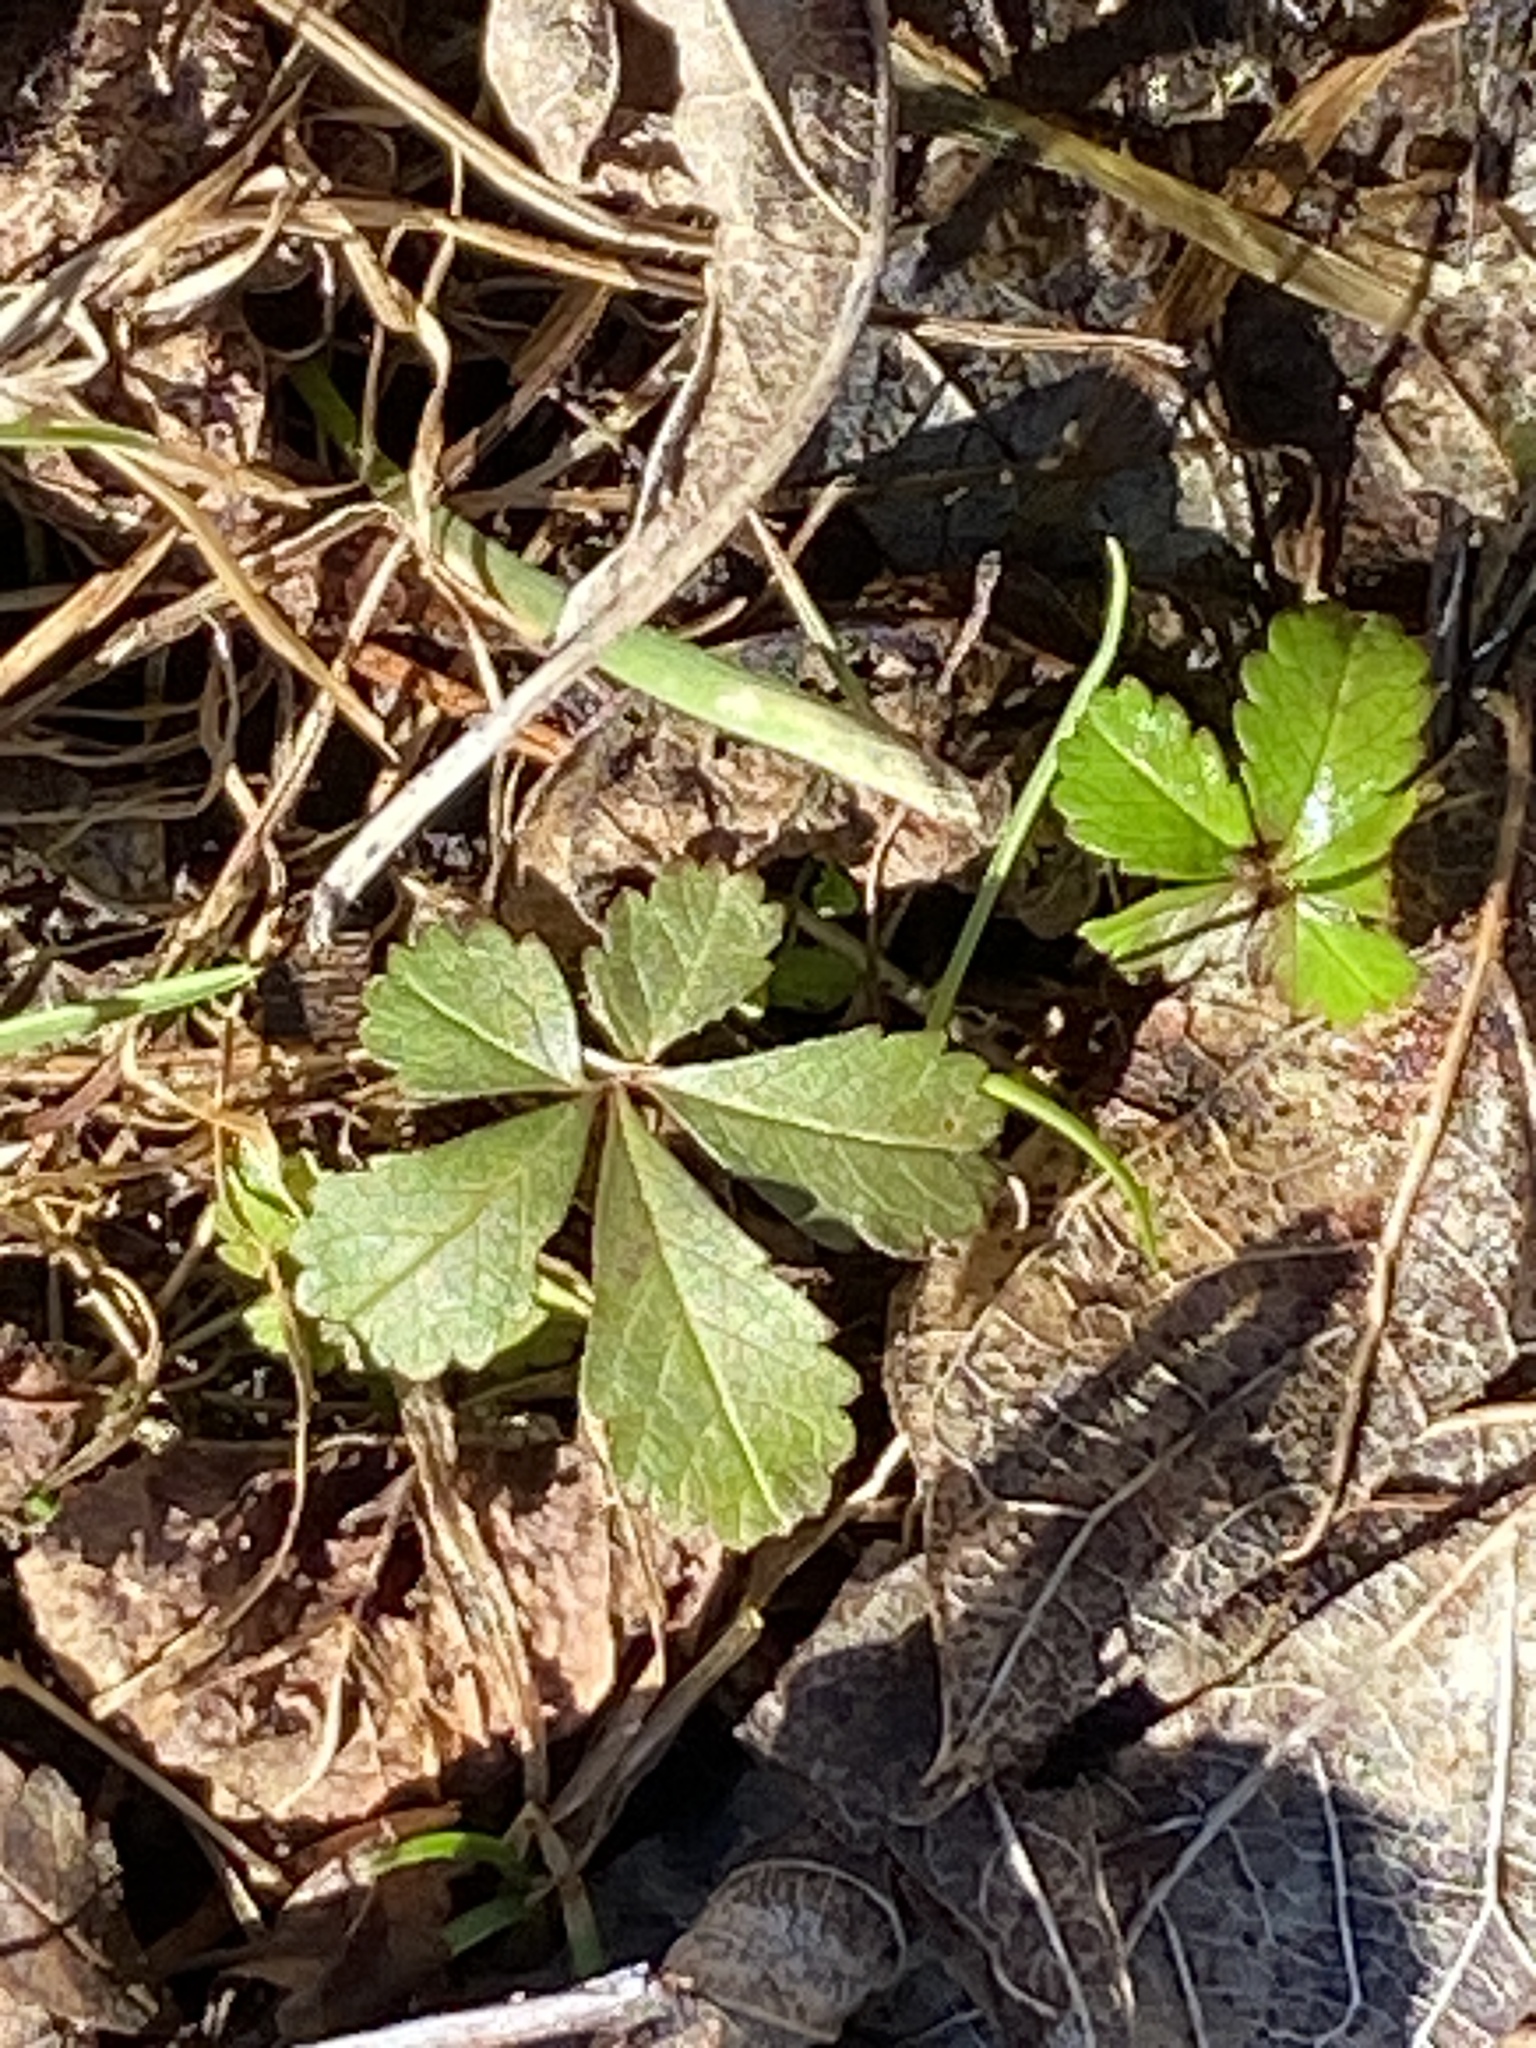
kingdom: Plantae
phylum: Tracheophyta
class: Magnoliopsida
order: Rosales
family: Rosaceae
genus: Potentilla
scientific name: Potentilla reptans
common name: Creeping cinquefoil
